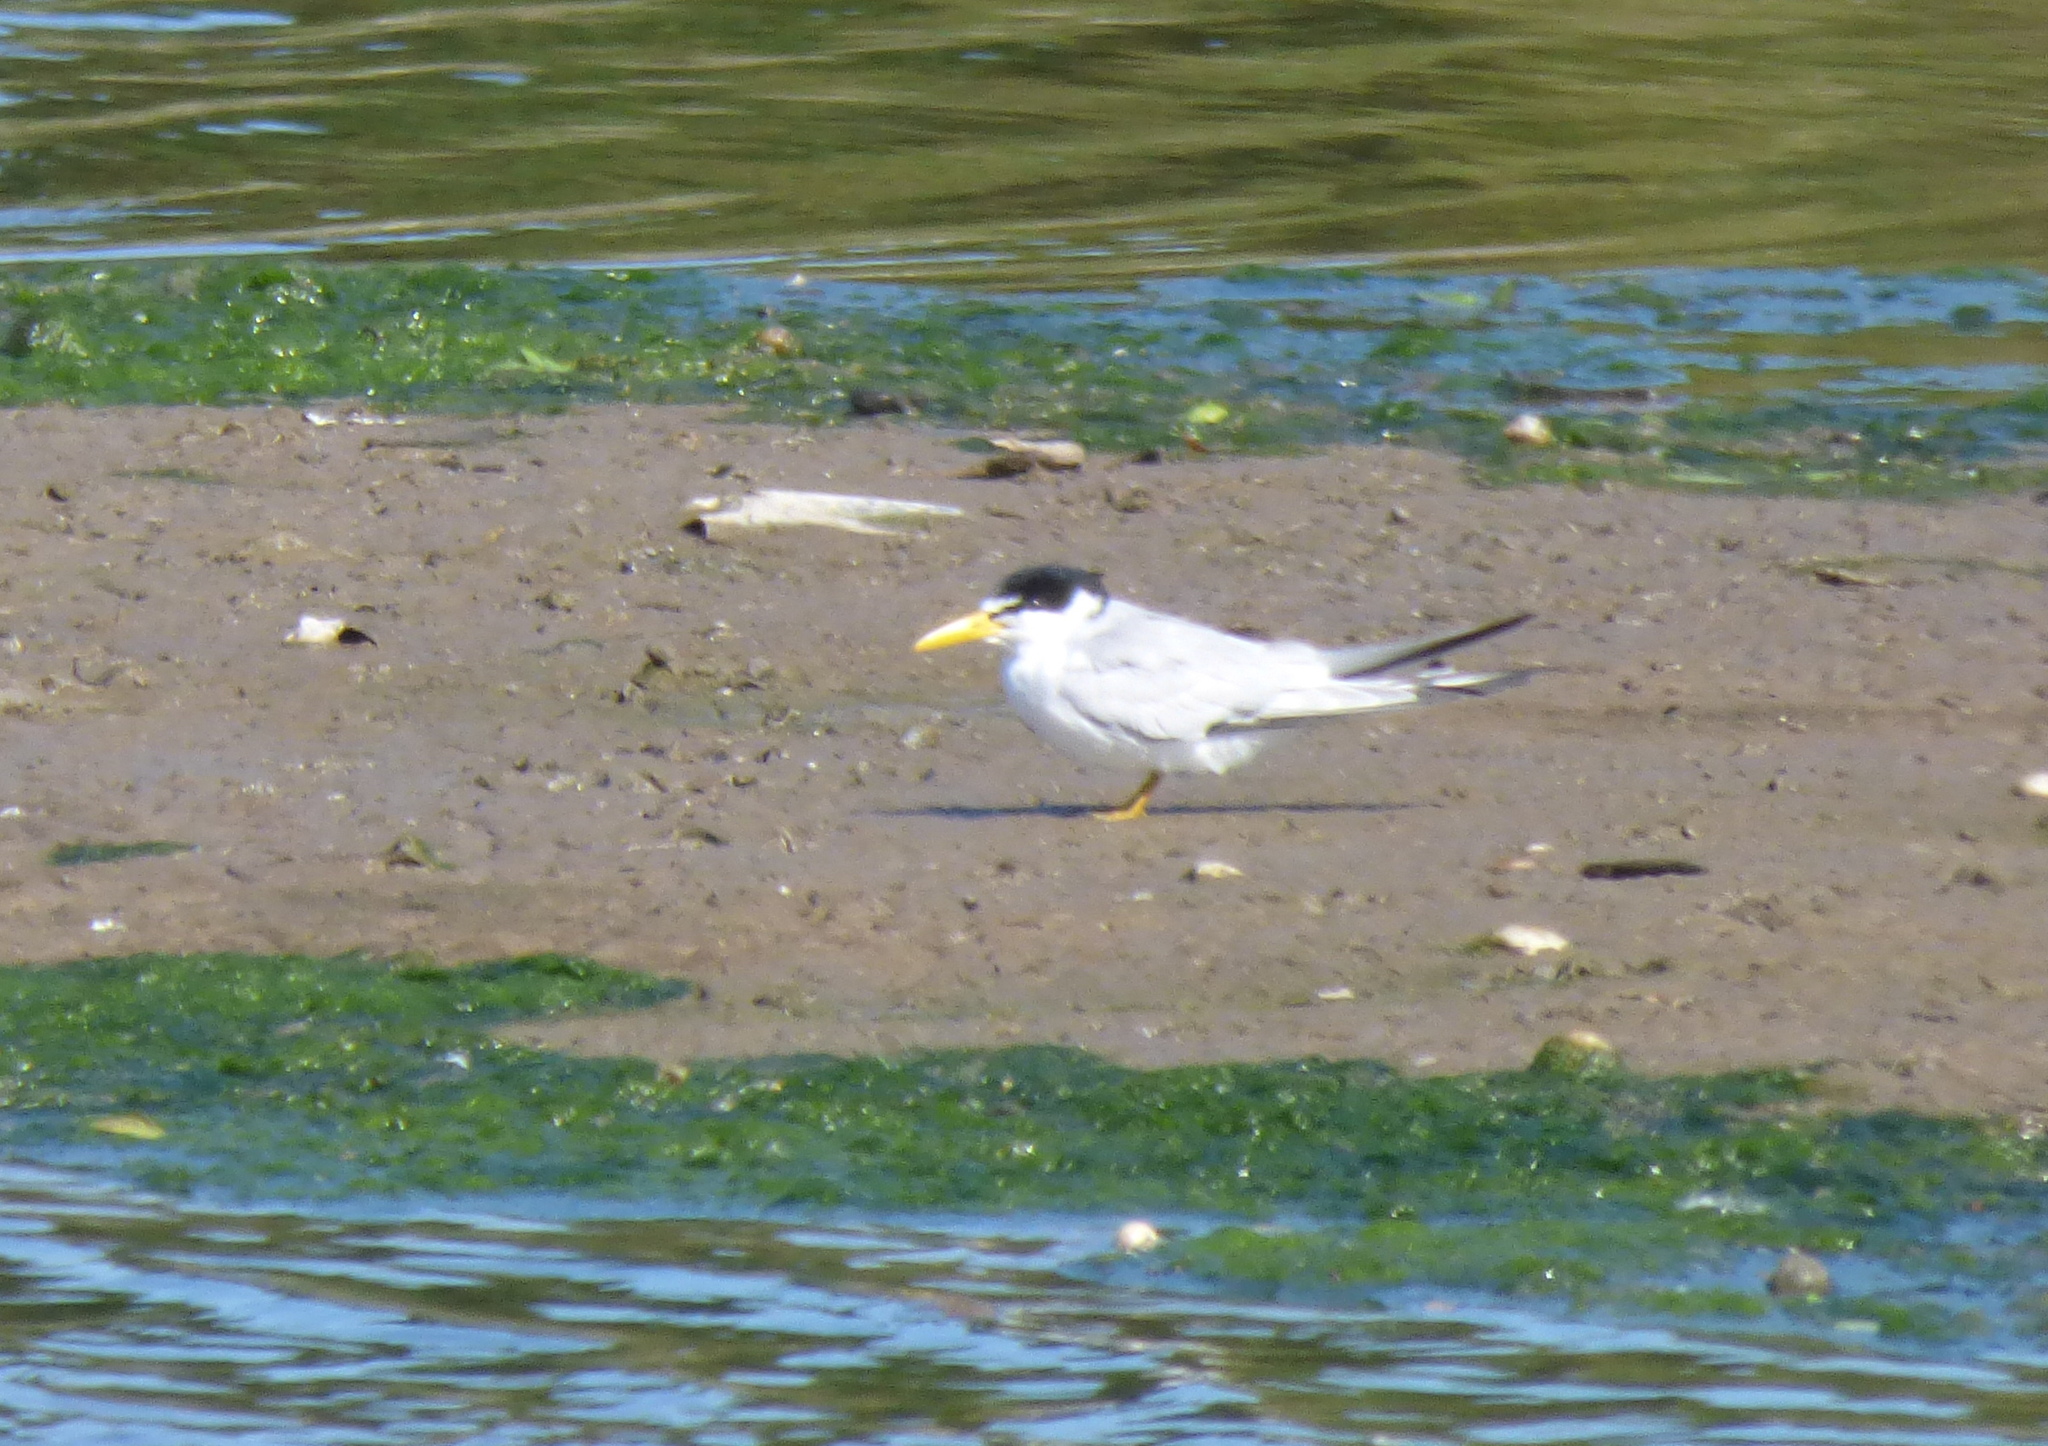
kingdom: Animalia
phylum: Chordata
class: Aves
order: Charadriiformes
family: Laridae
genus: Sternula
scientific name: Sternula superciliaris
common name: Yellow-billed tern
